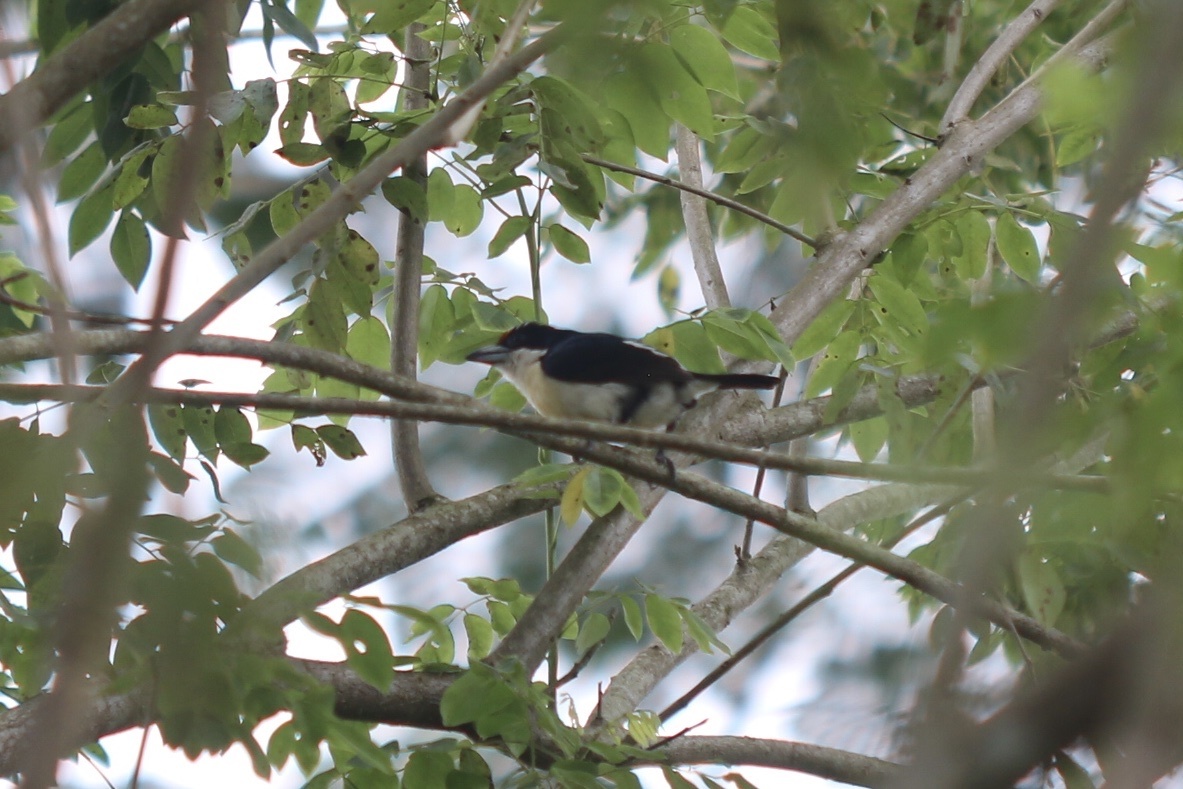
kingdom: Animalia
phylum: Chordata
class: Aves
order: Piciformes
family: Capitonidae
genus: Capito
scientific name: Capito squamatus
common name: Orange-fronted barbet
